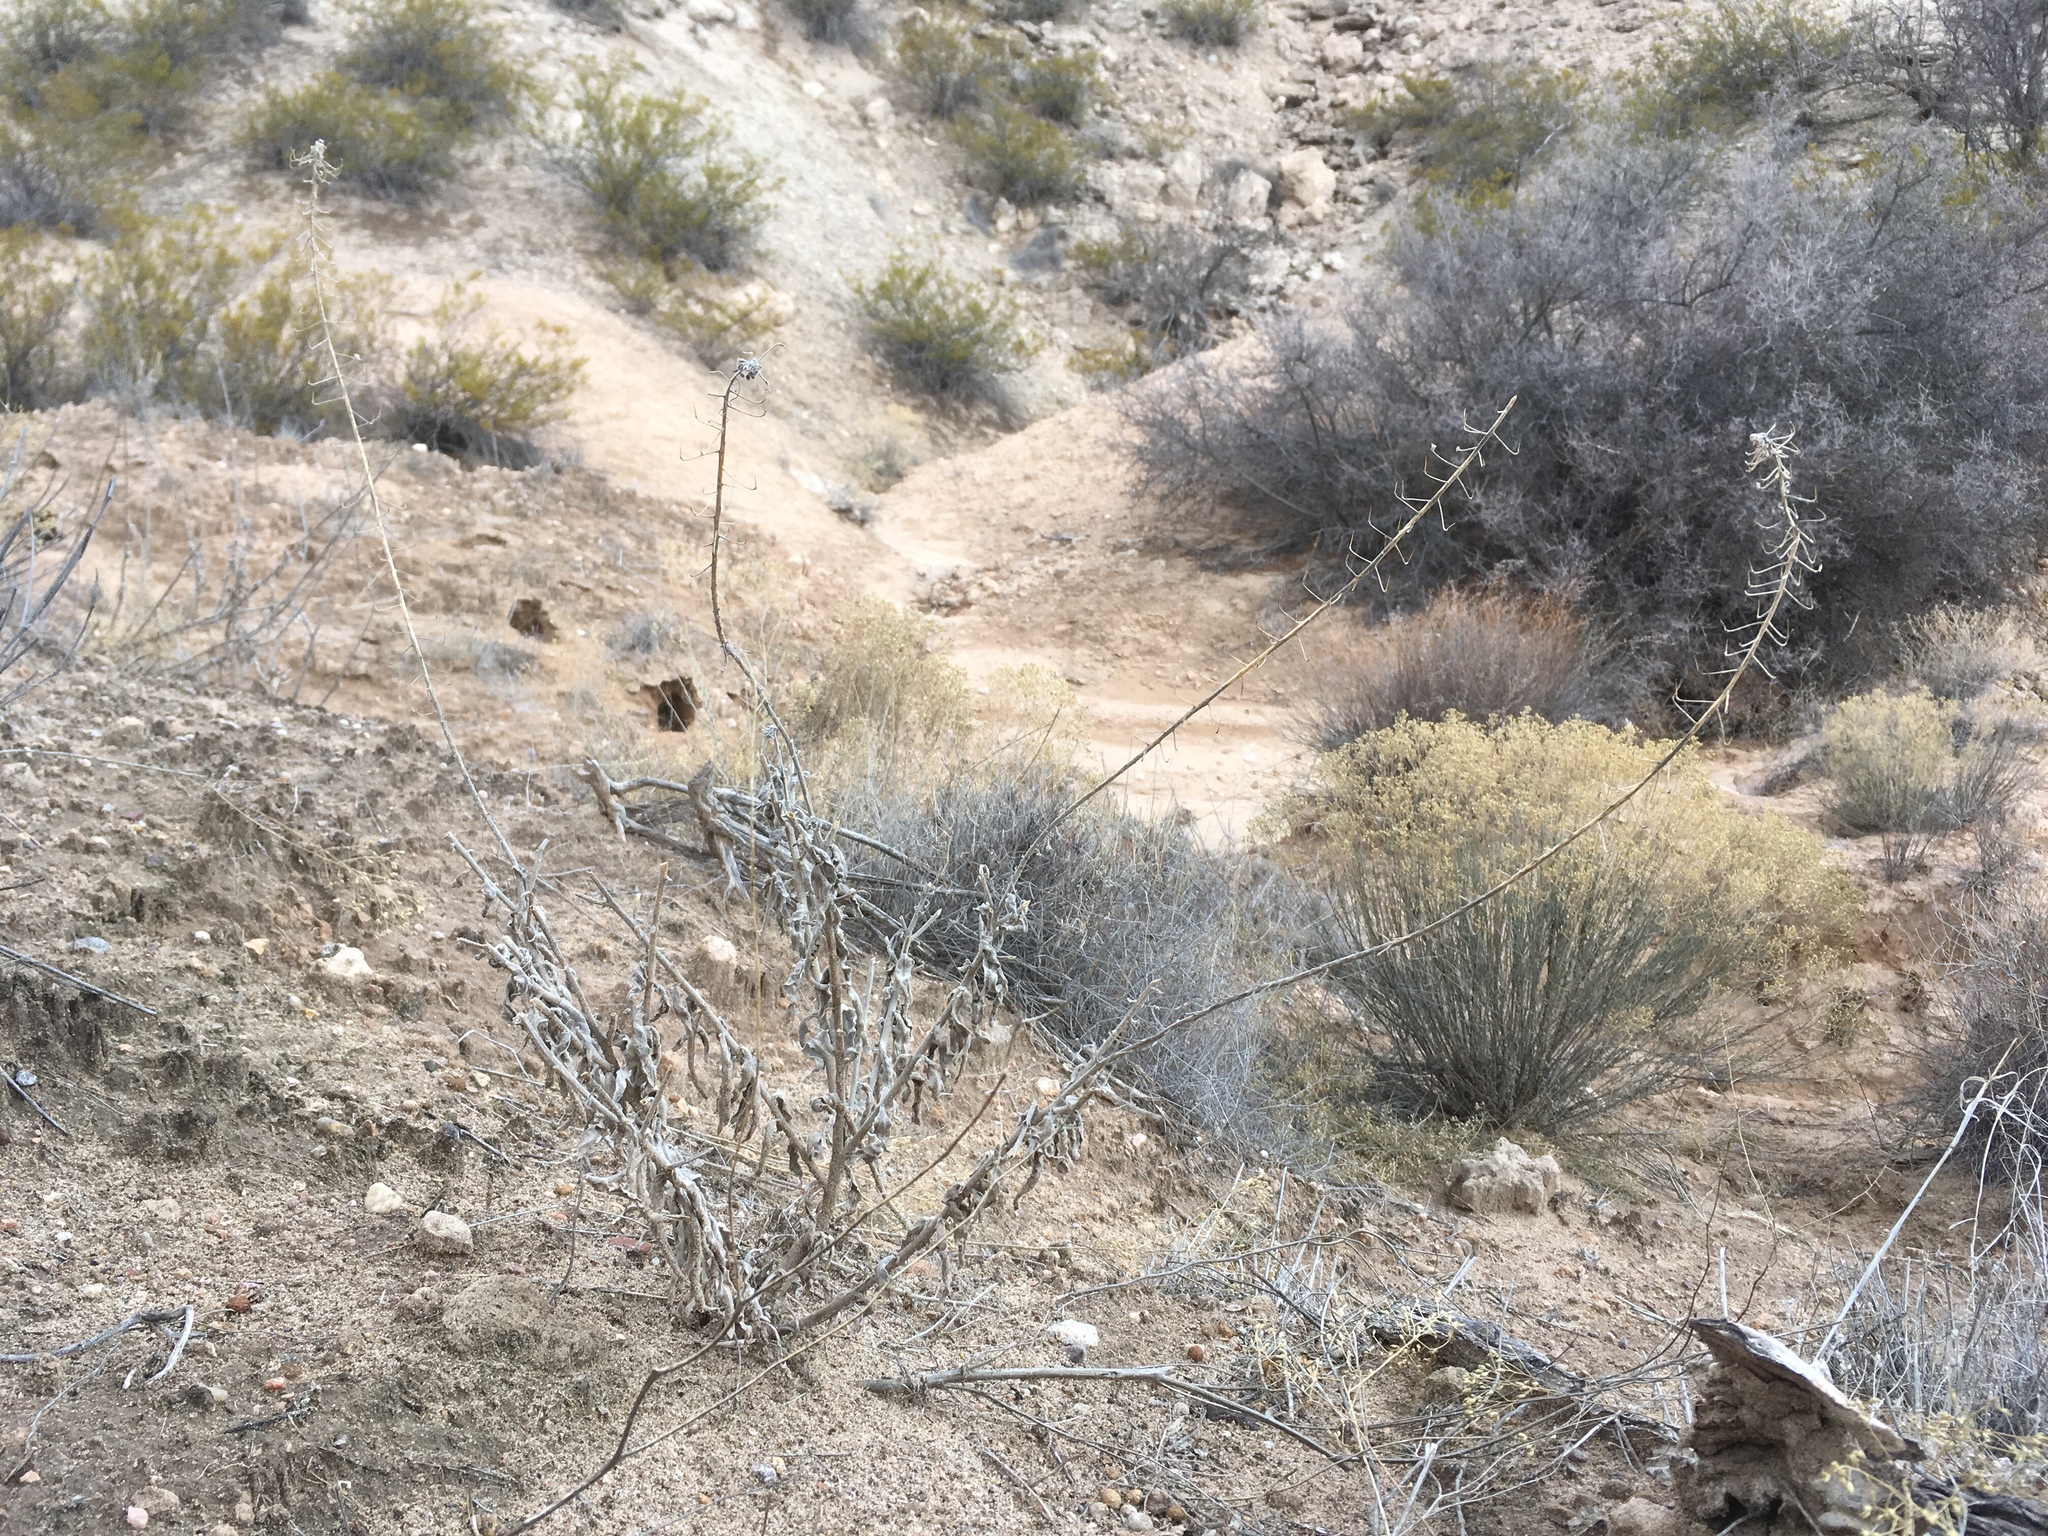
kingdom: Plantae
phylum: Tracheophyta
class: Magnoliopsida
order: Brassicales
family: Brassicaceae
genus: Dimorphocarpa
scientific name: Dimorphocarpa wislizenii
